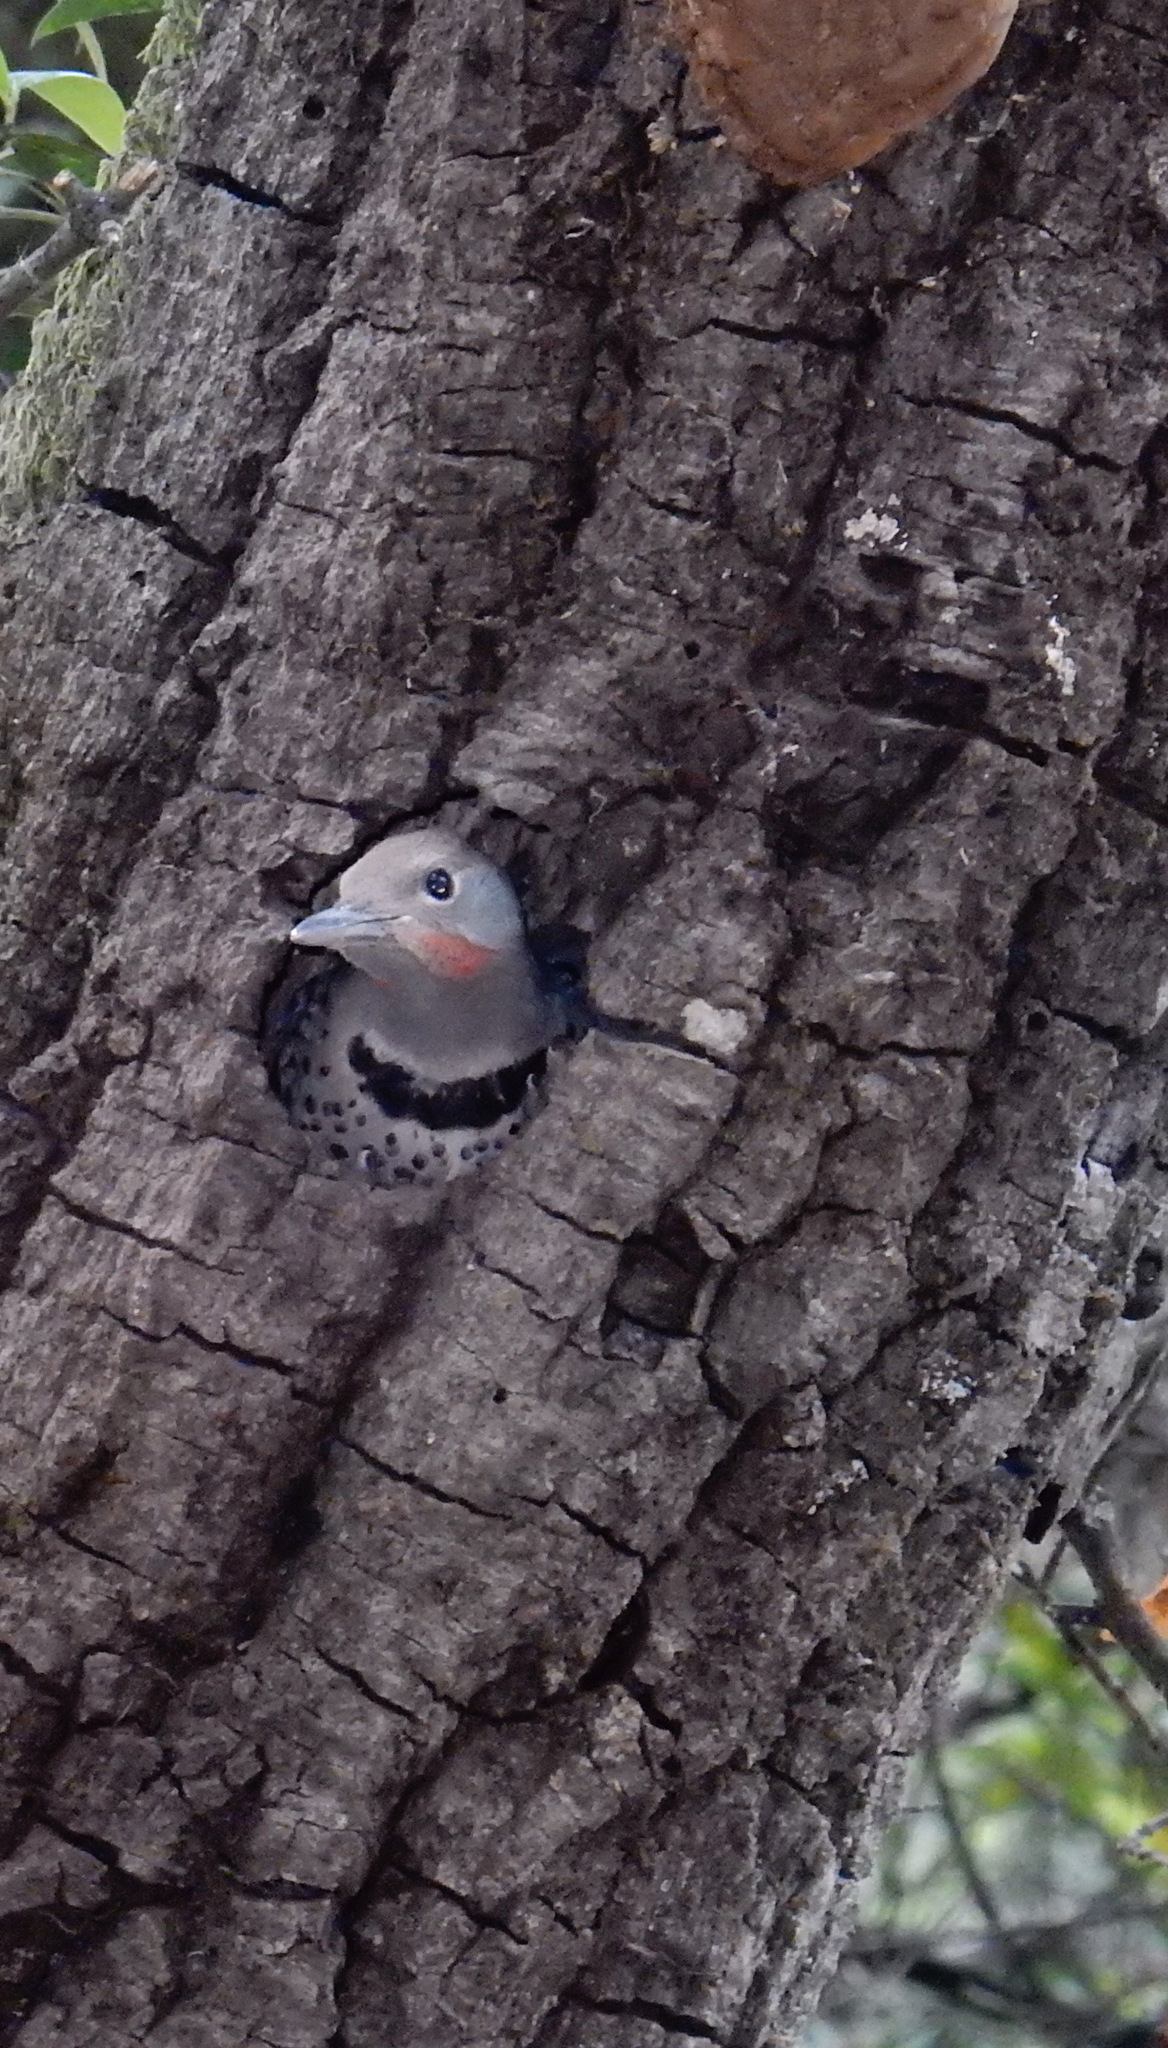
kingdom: Animalia
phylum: Chordata
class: Aves
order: Piciformes
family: Picidae
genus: Colaptes
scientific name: Colaptes auratus
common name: Northern flicker
